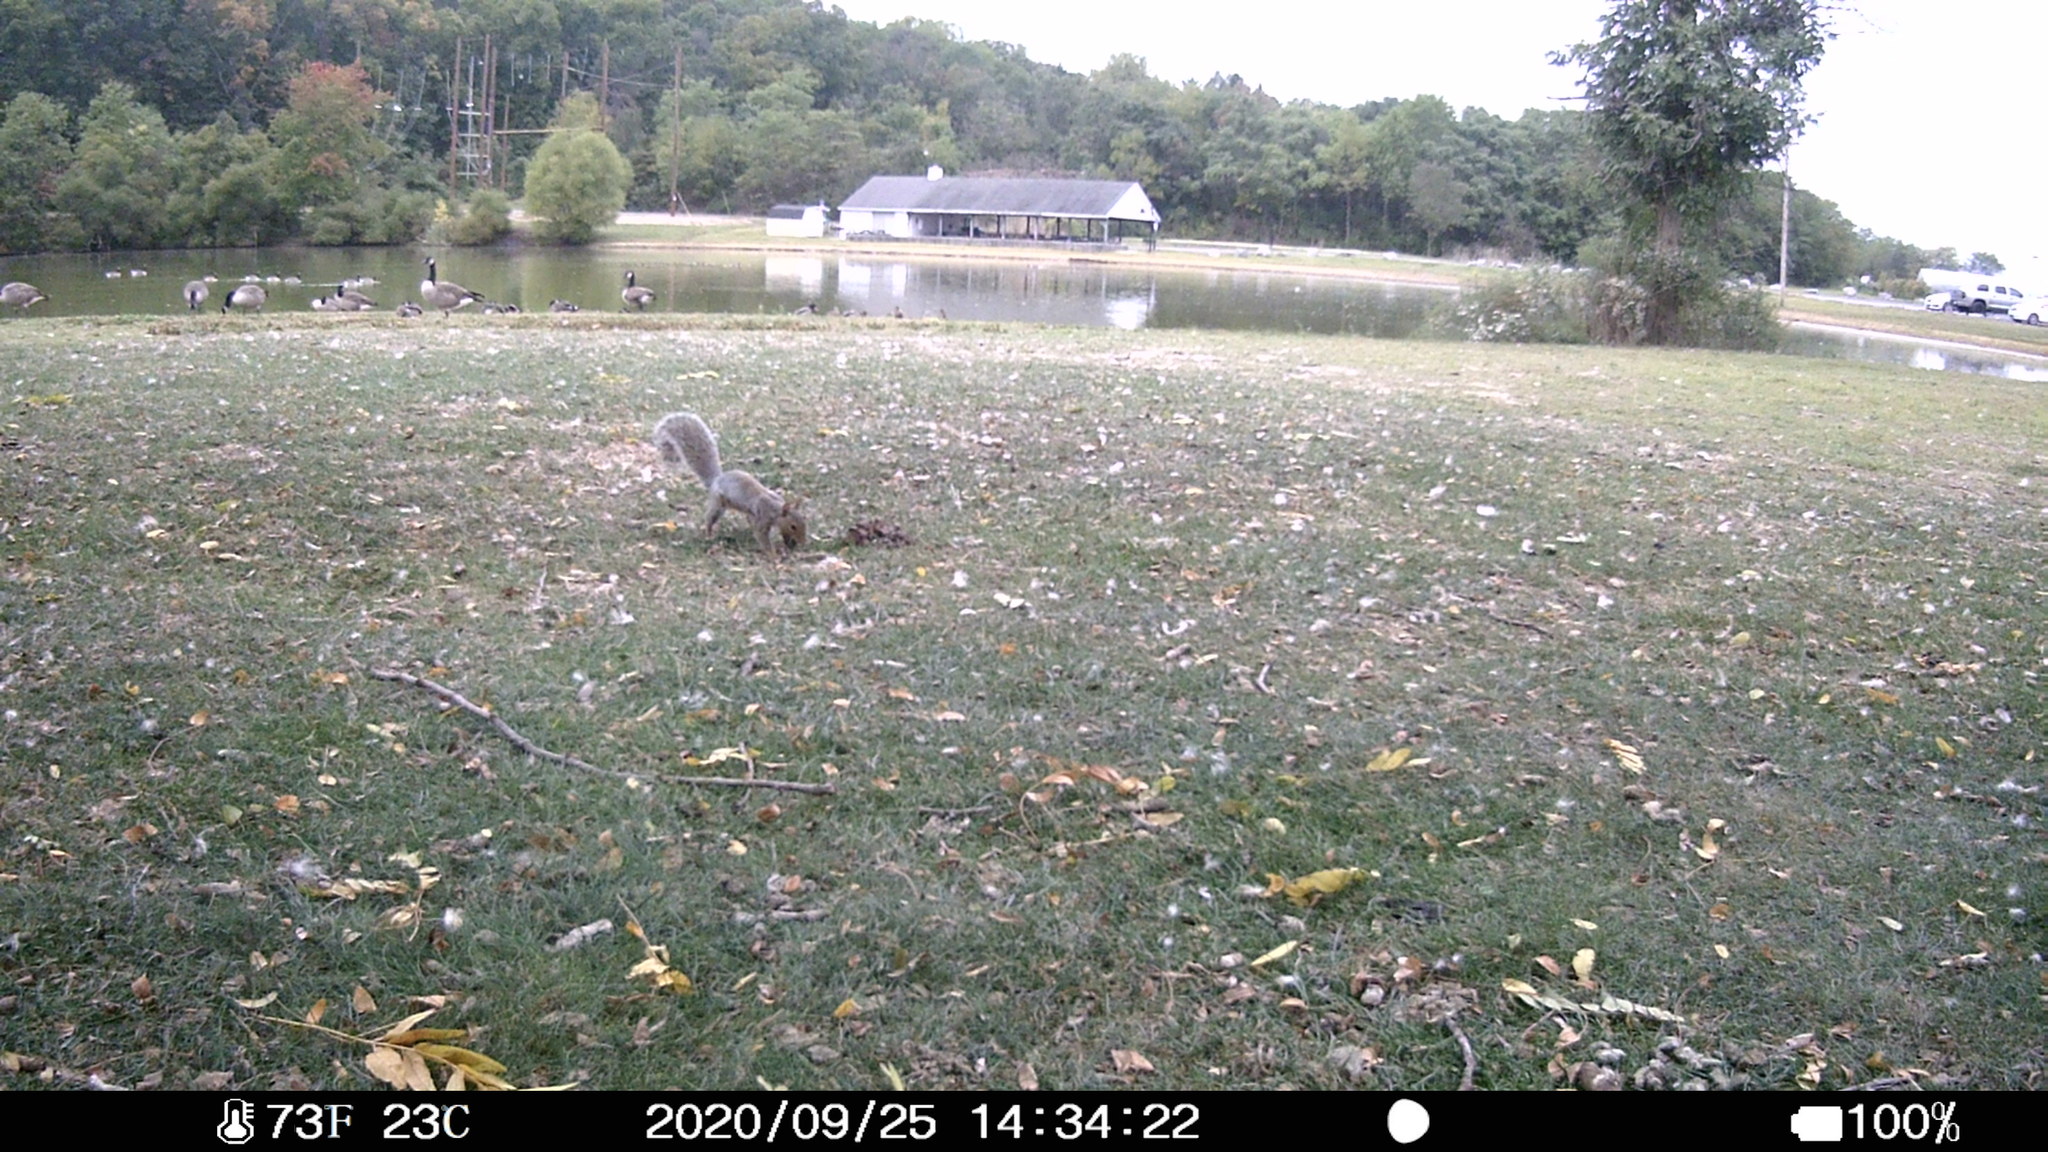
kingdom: Animalia
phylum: Chordata
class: Mammalia
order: Rodentia
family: Sciuridae
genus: Sciurus
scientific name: Sciurus carolinensis
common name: Eastern gray squirrel
